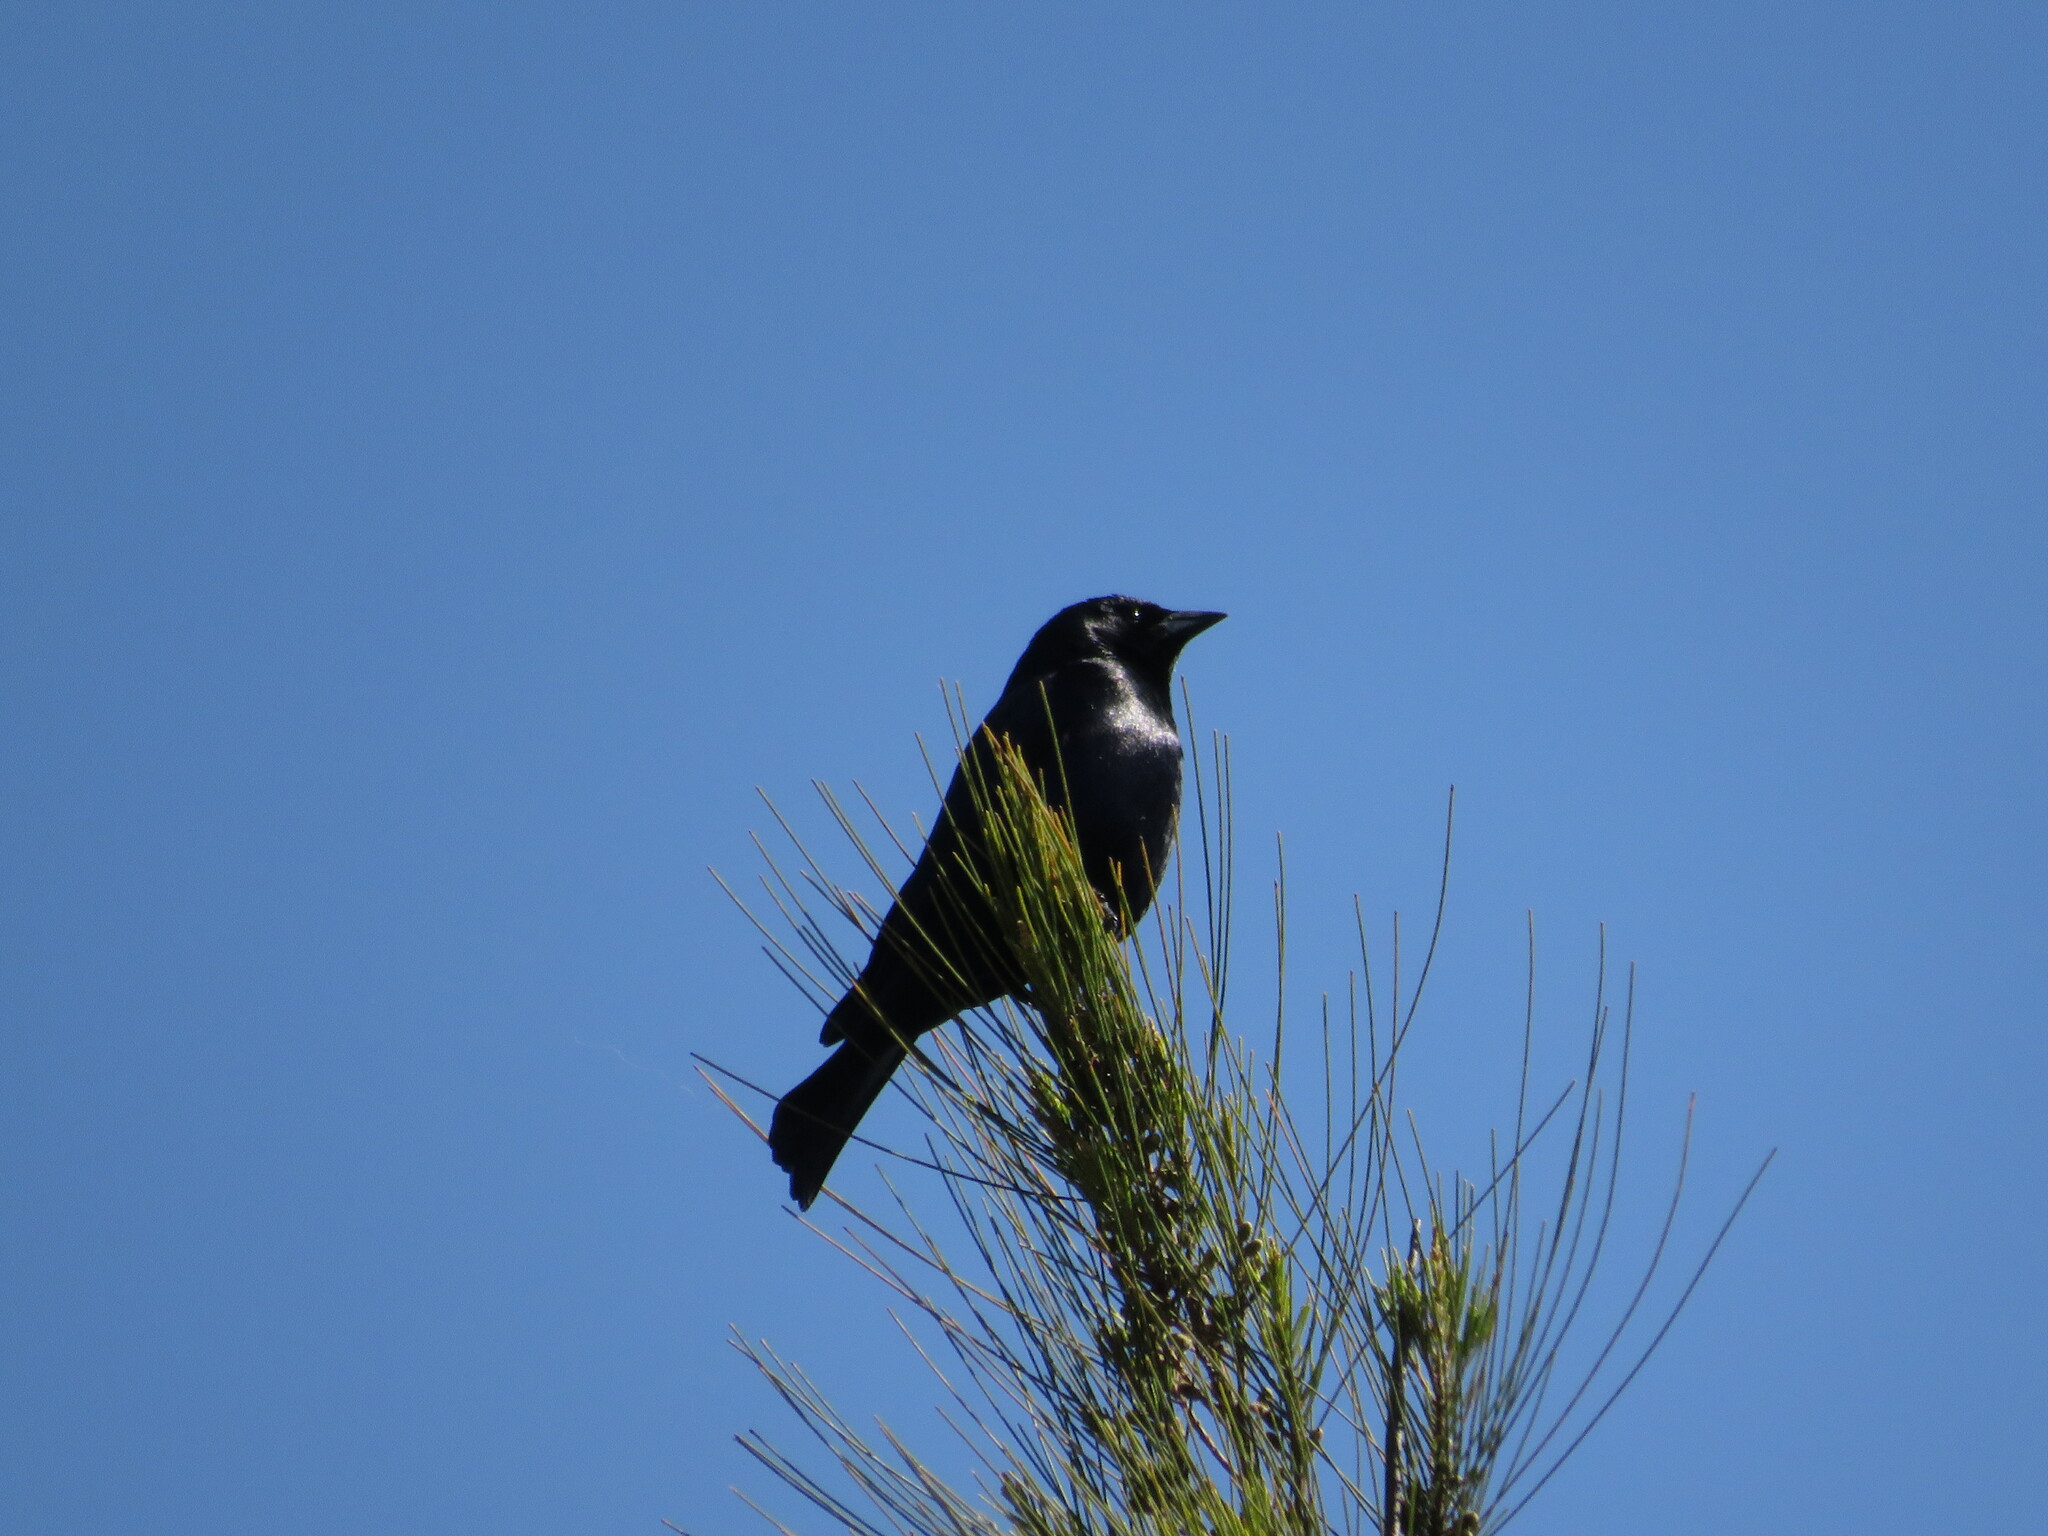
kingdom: Animalia
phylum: Chordata
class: Aves
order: Passeriformes
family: Icteridae
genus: Molothrus
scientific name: Molothrus bonariensis
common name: Shiny cowbird
